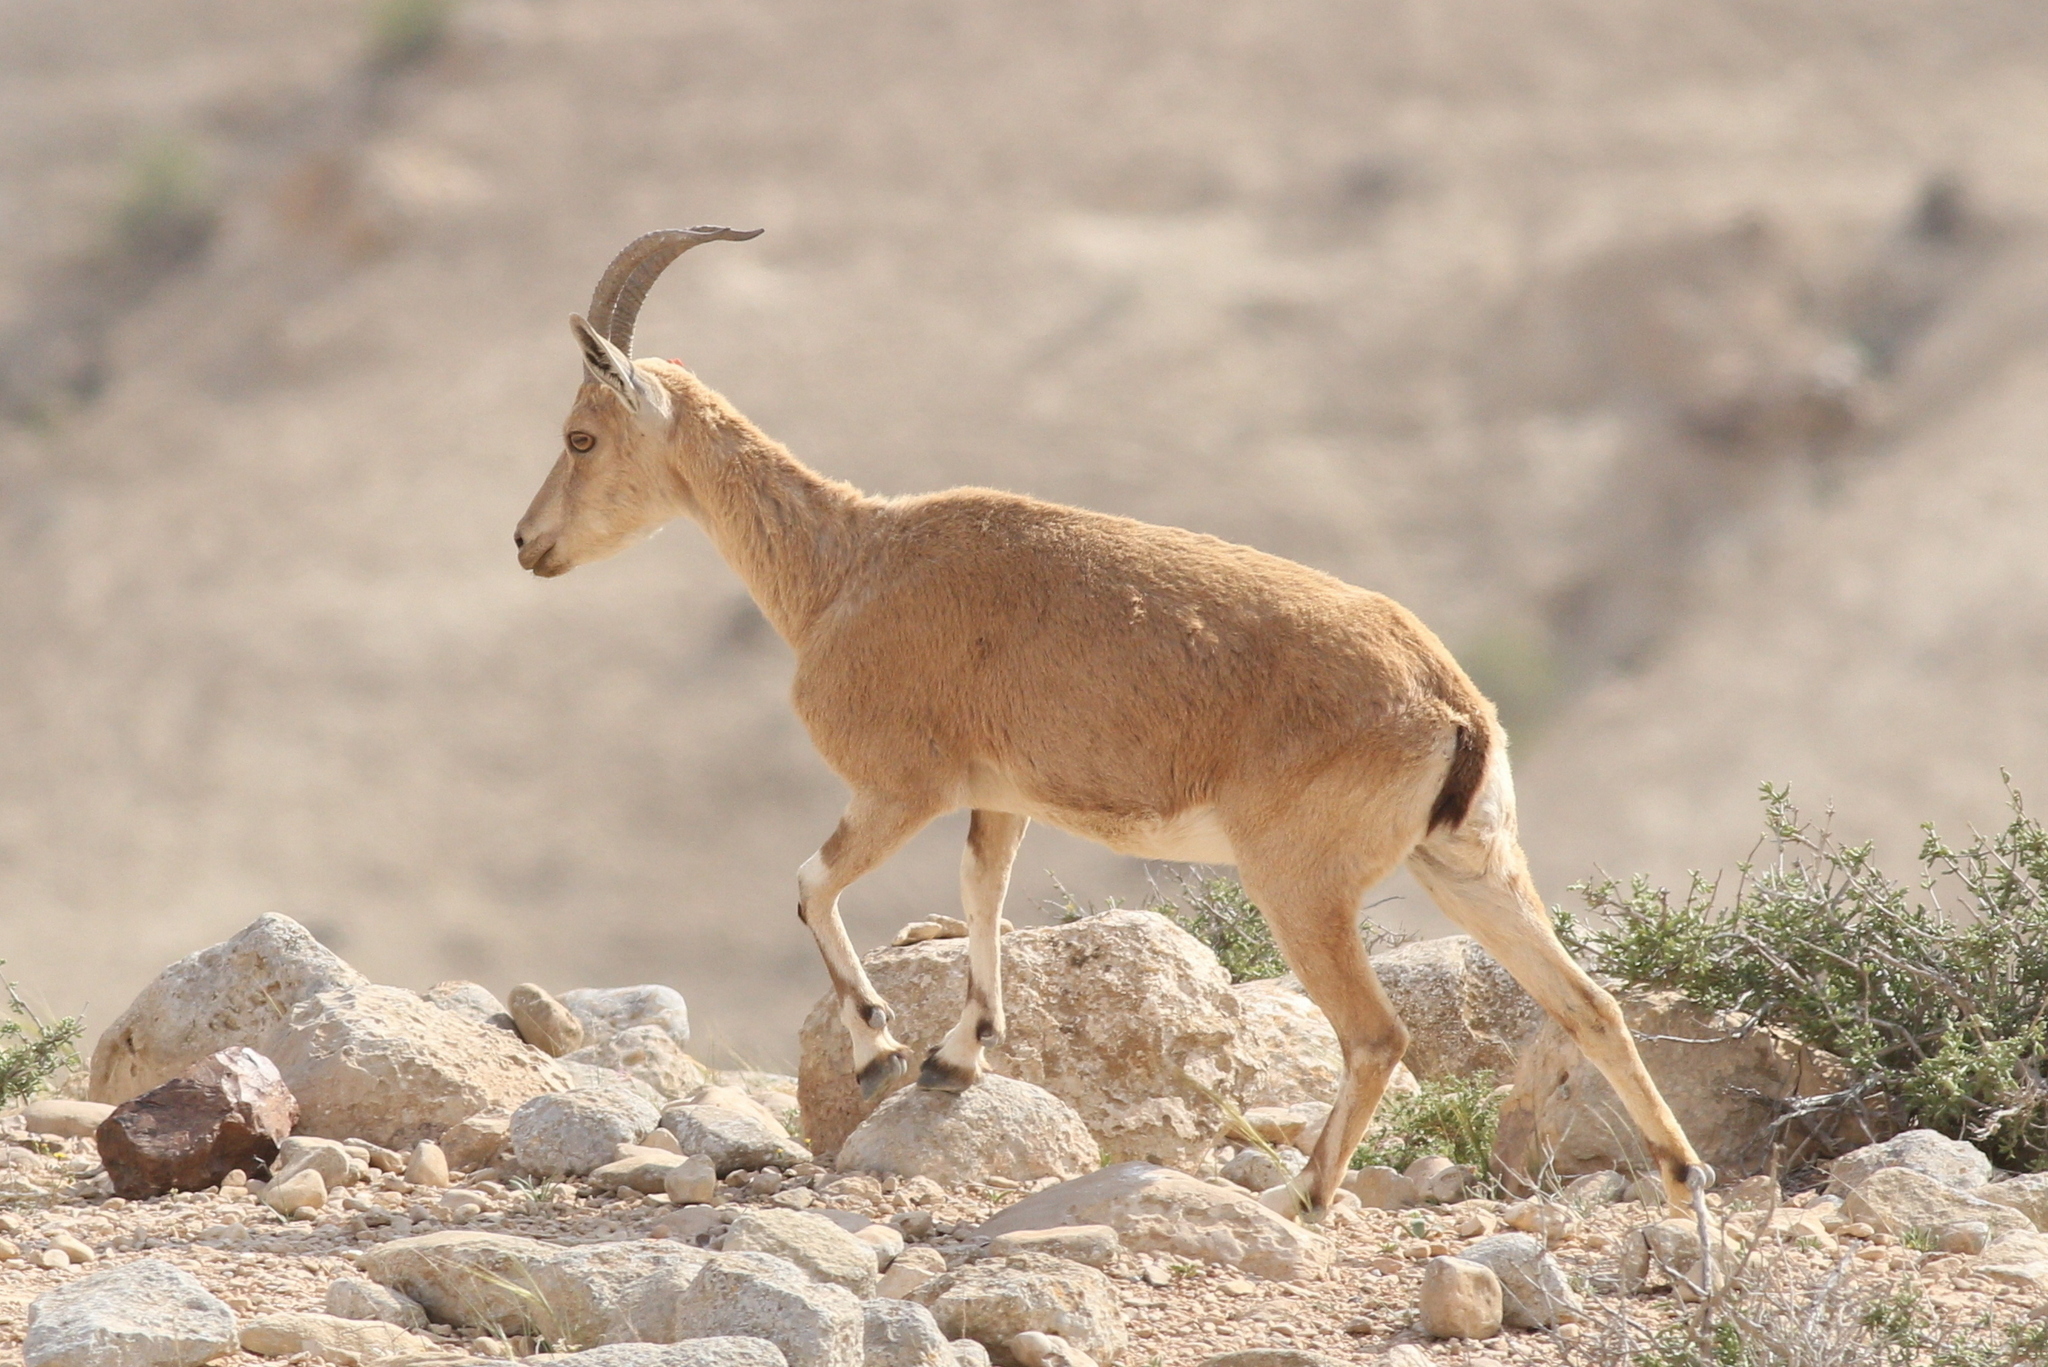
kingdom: Animalia
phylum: Chordata
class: Mammalia
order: Artiodactyla
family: Bovidae
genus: Capra
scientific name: Capra nubiana
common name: Nubian ibex
